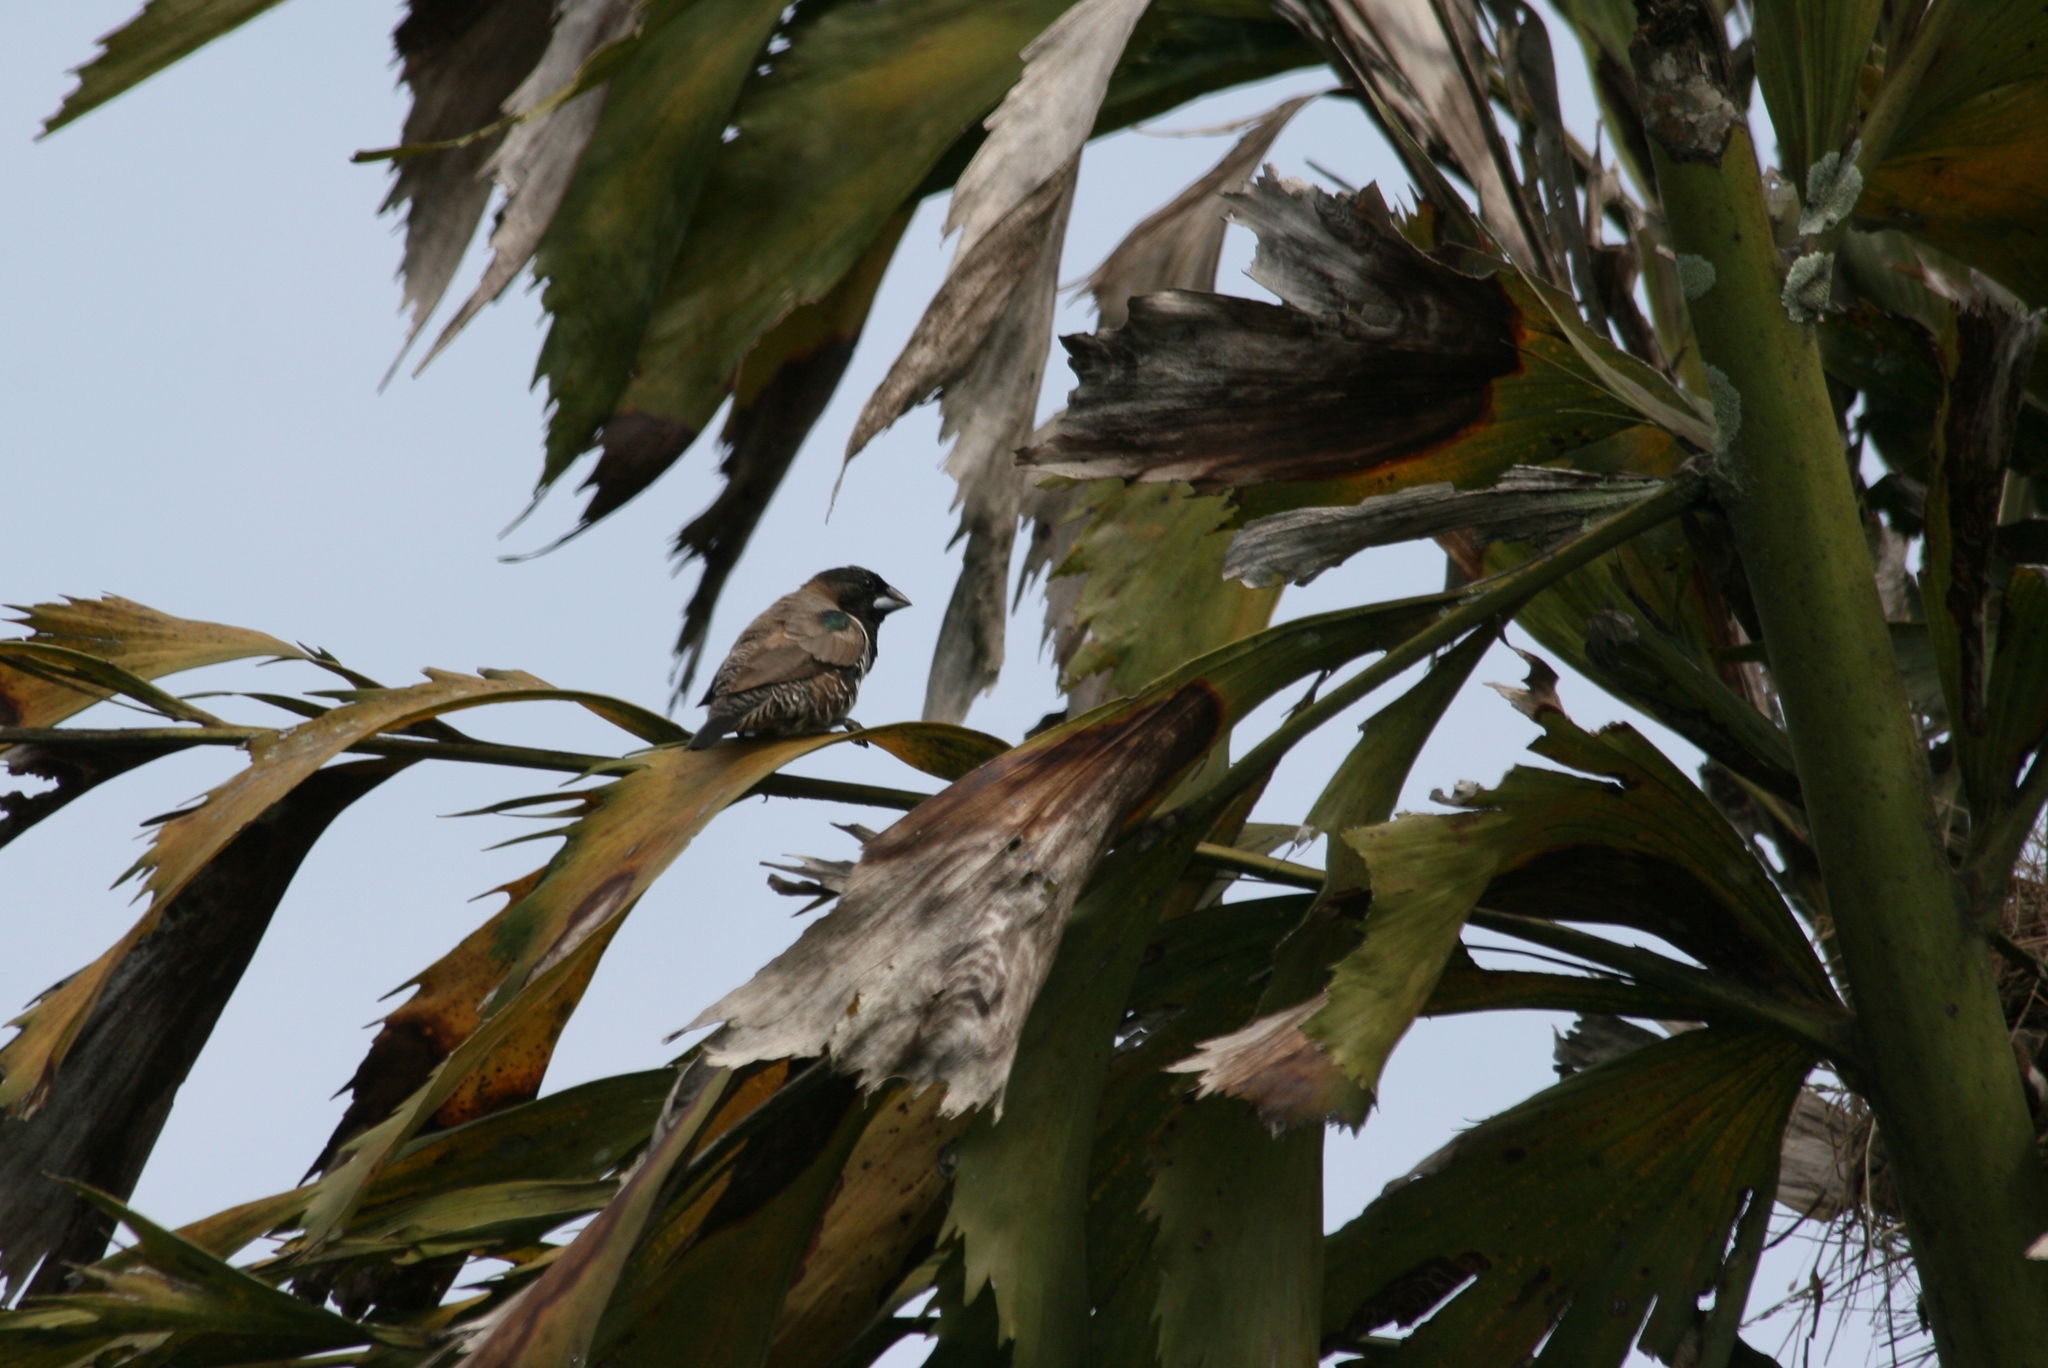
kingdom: Animalia
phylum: Chordata
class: Aves
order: Passeriformes
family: Estrildidae
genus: Lonchura
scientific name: Lonchura cucullata
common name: Bronze mannikin
